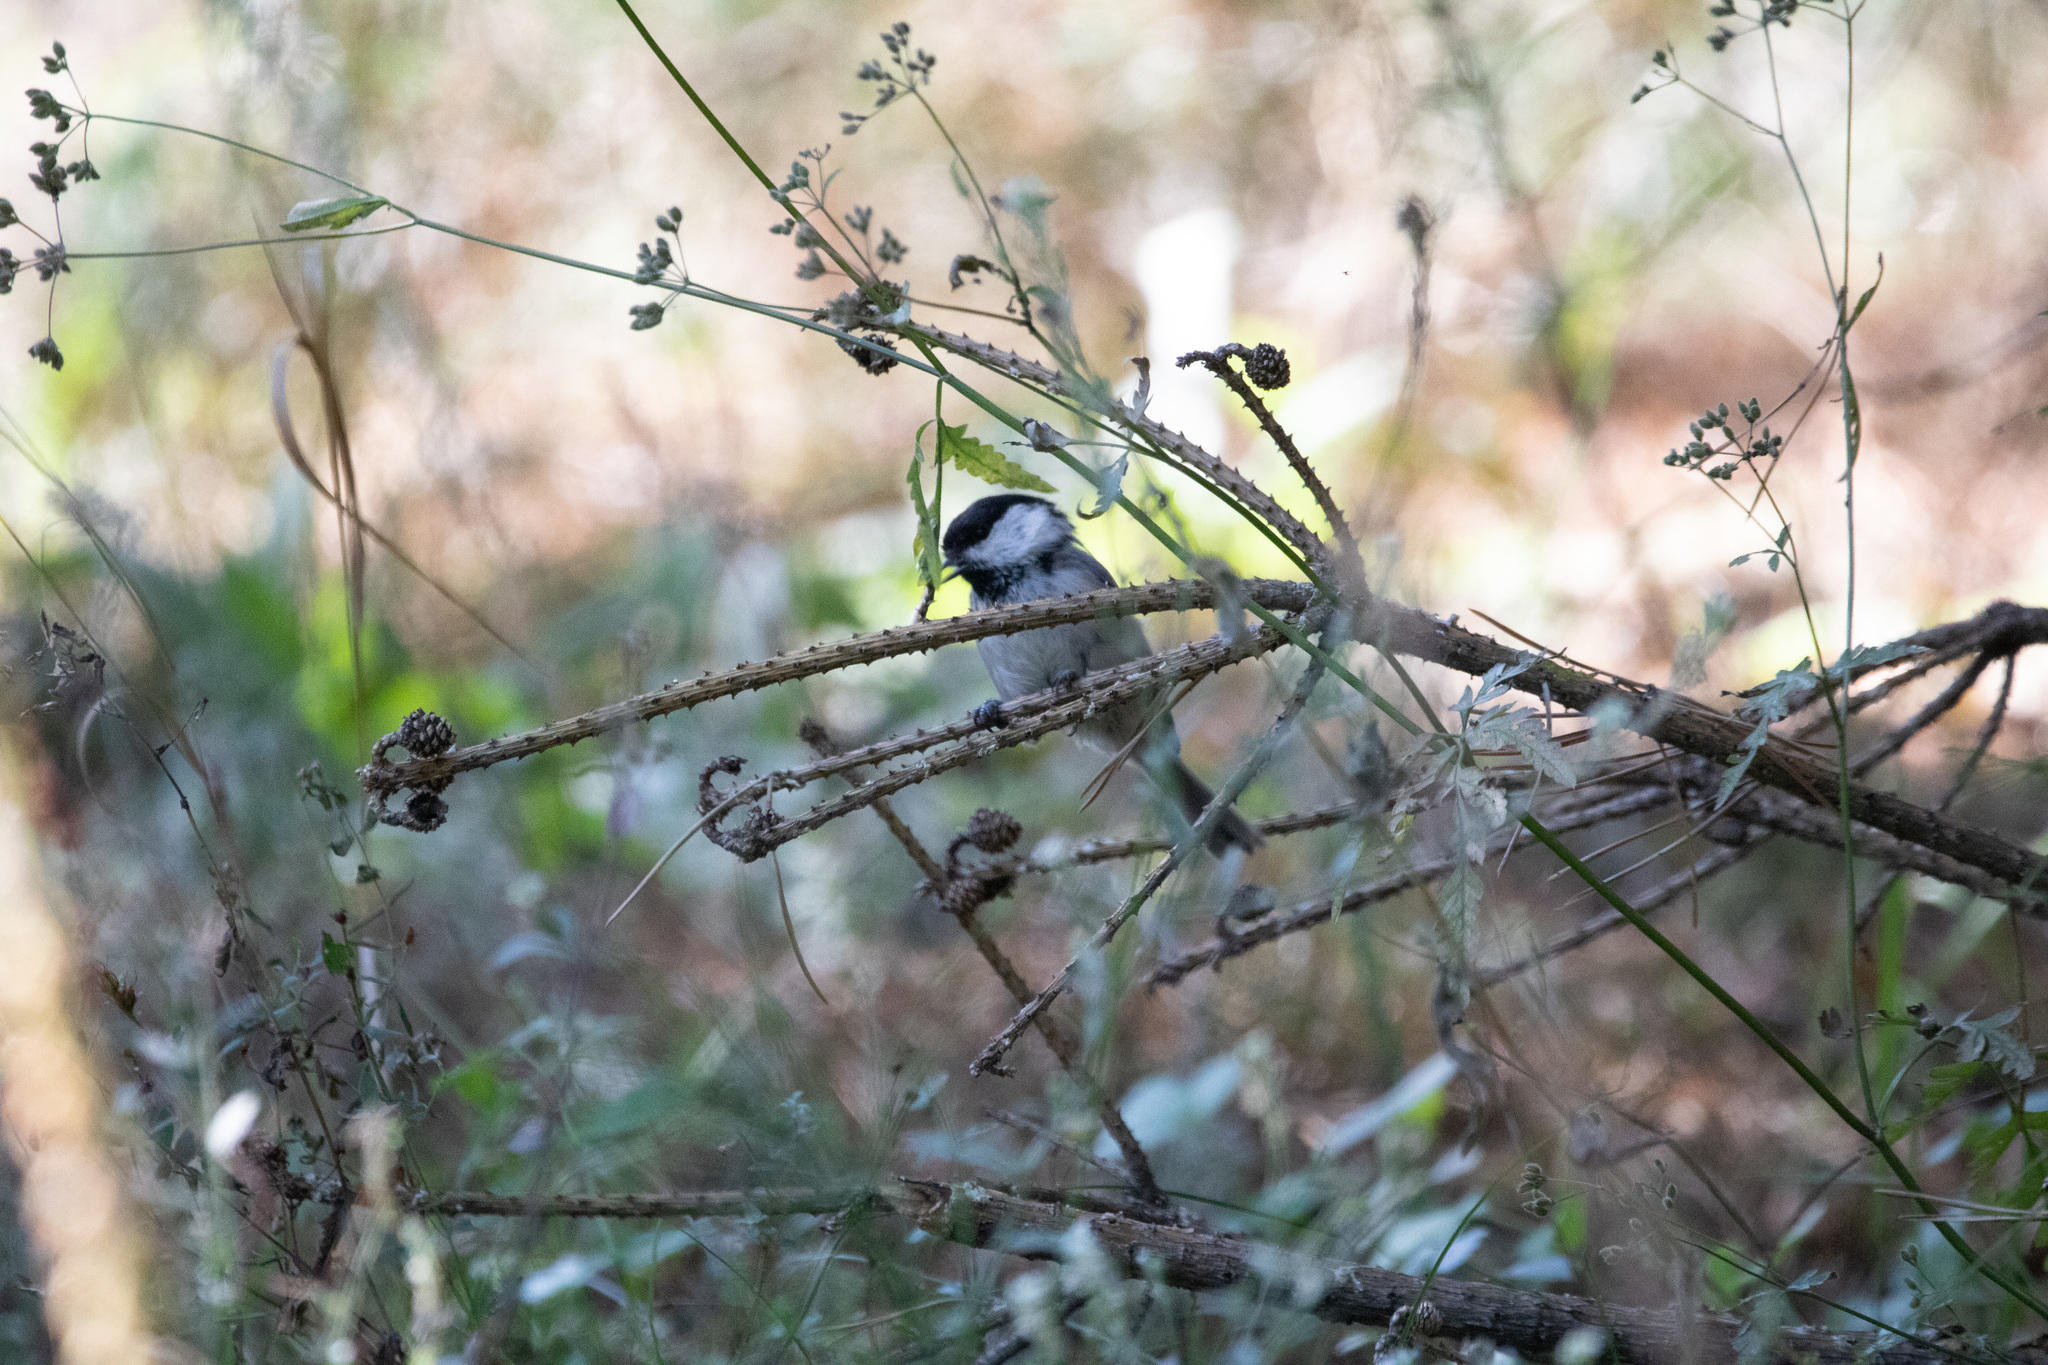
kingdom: Animalia
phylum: Chordata
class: Aves
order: Passeriformes
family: Paridae
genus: Poecile
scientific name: Poecile montanus
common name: Willow tit
